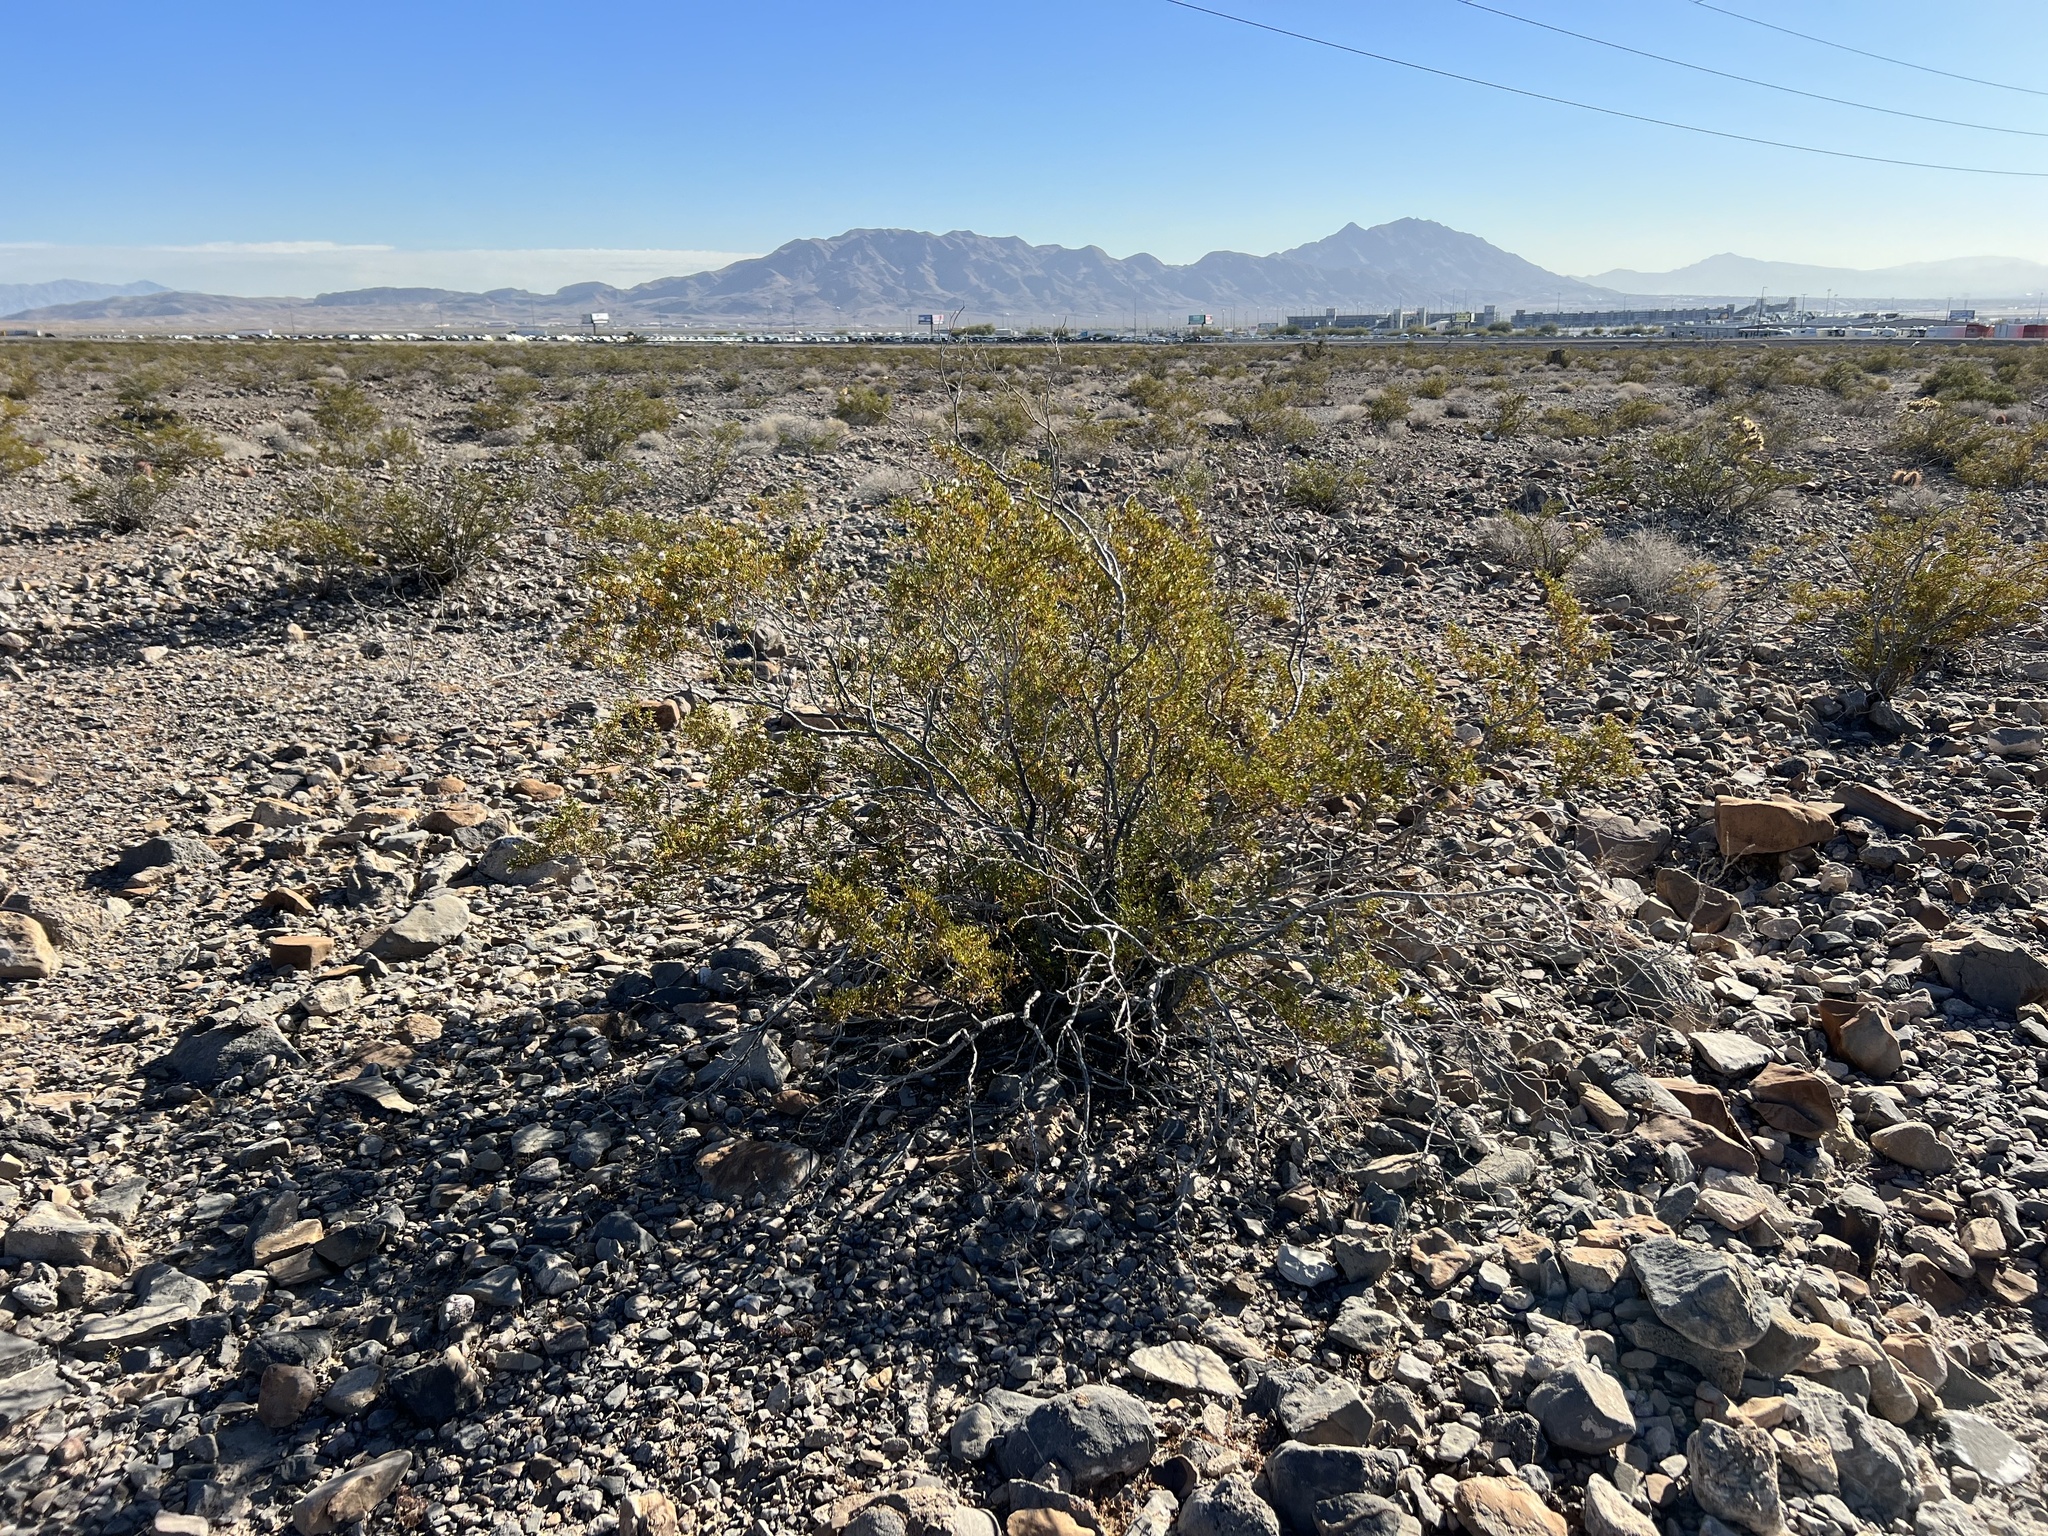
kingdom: Plantae
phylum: Tracheophyta
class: Magnoliopsida
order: Zygophyllales
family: Zygophyllaceae
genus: Larrea
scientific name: Larrea tridentata
